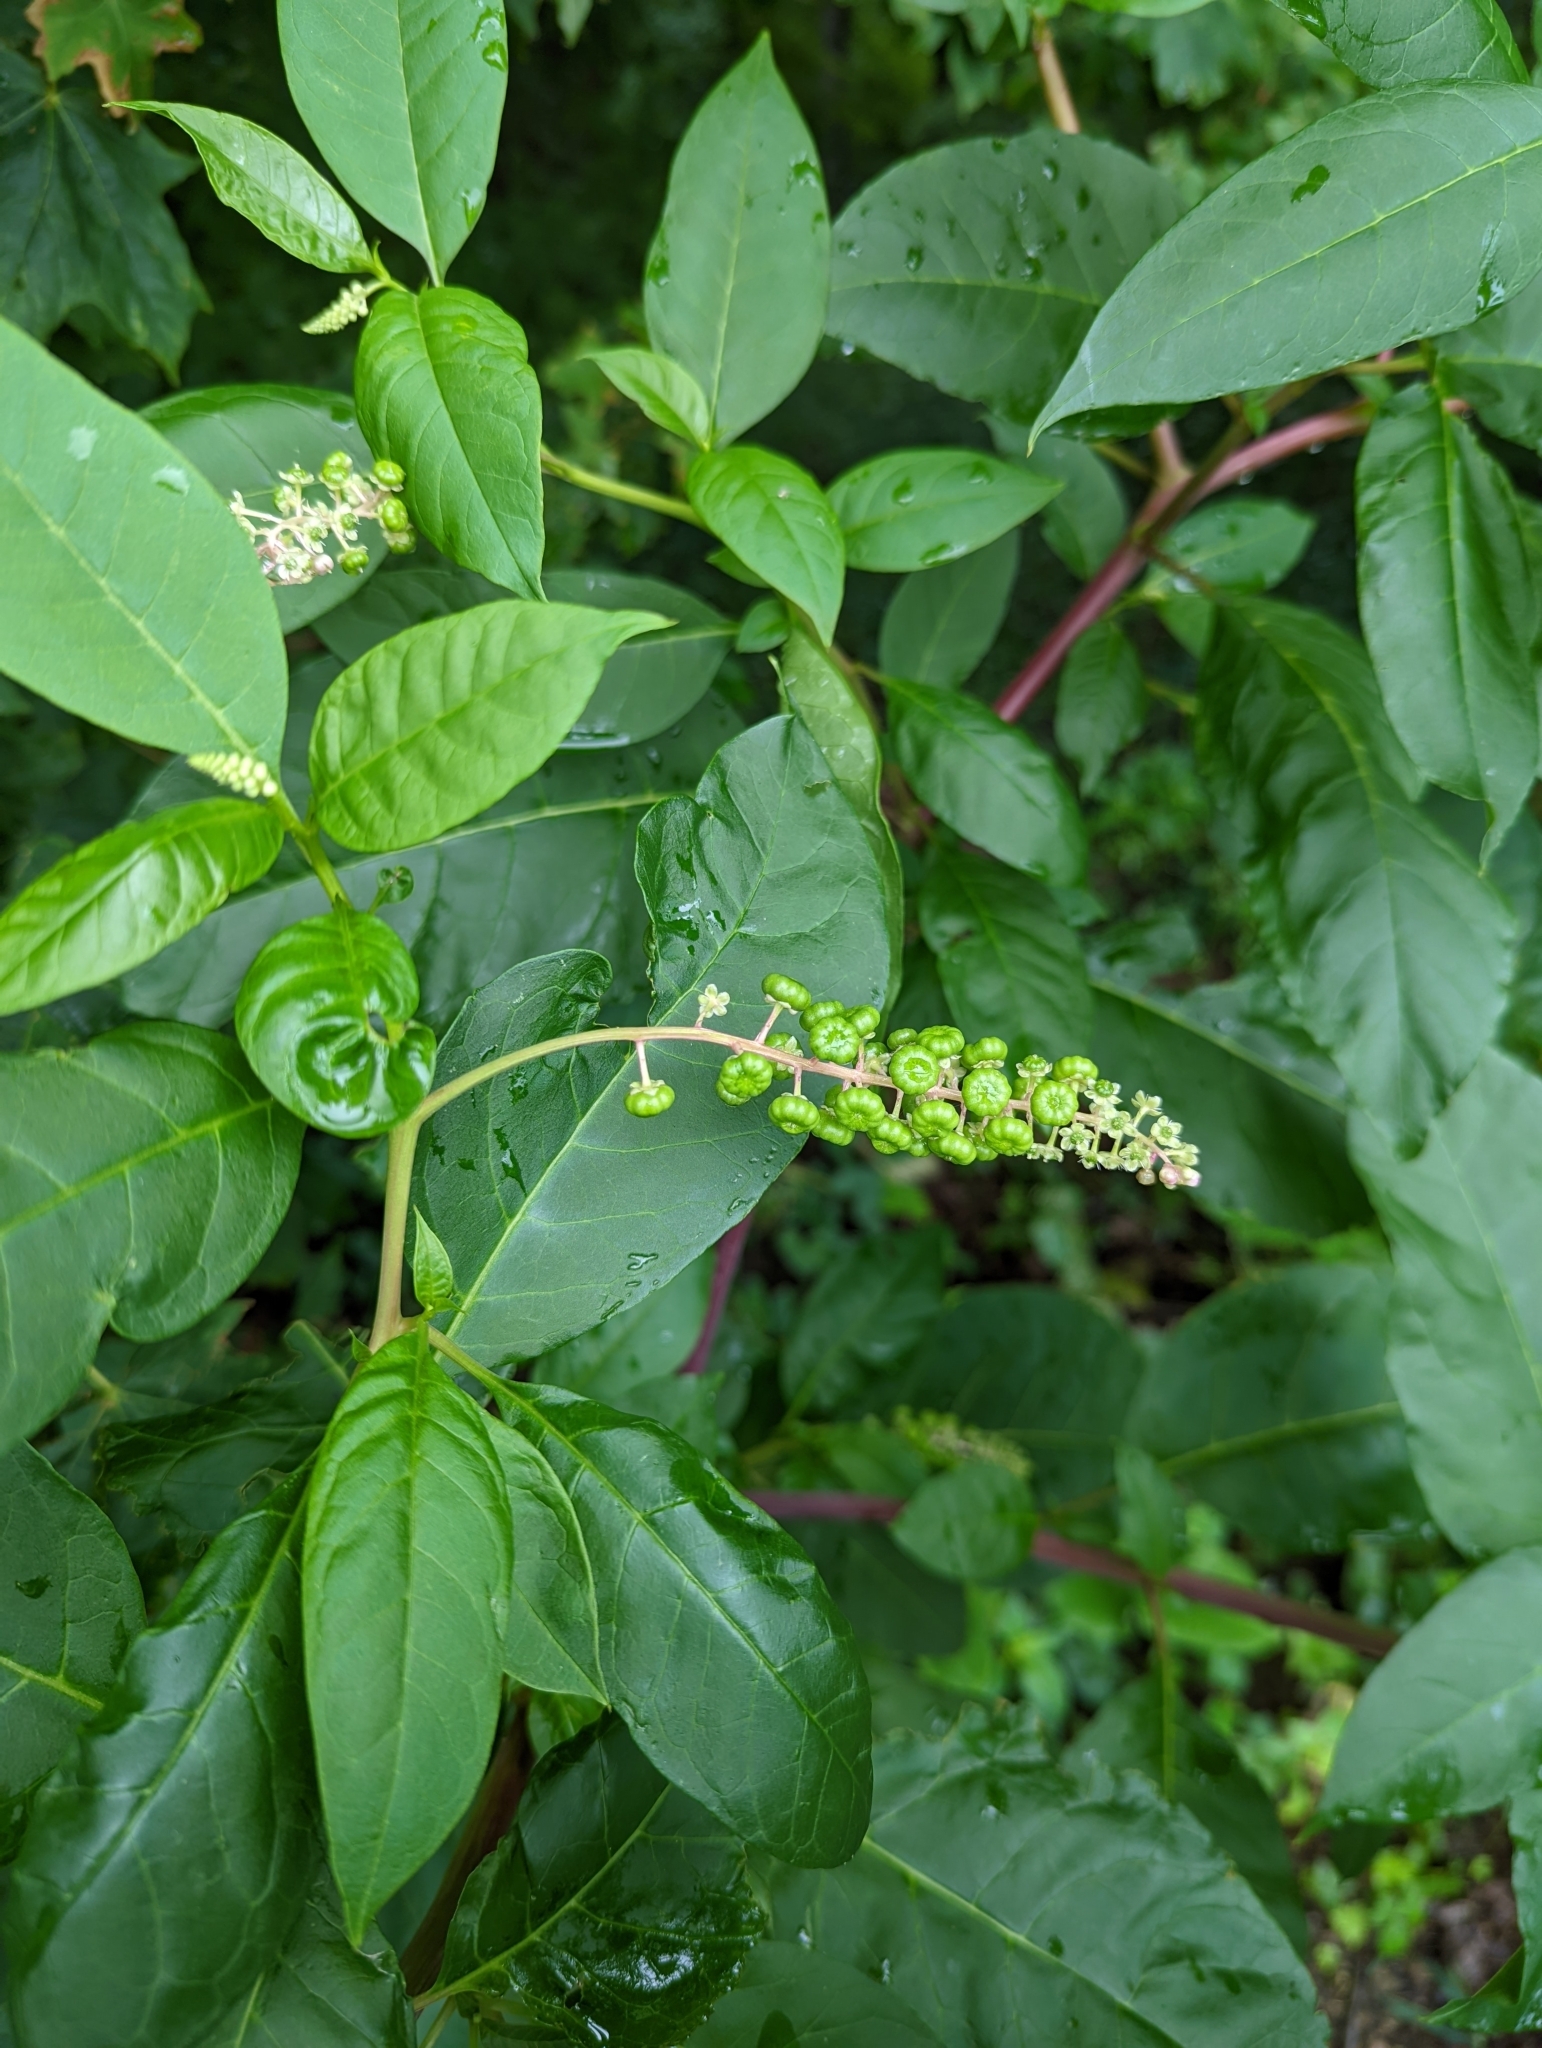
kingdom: Plantae
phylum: Tracheophyta
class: Magnoliopsida
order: Caryophyllales
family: Phytolaccaceae
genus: Phytolacca
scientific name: Phytolacca americana
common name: American pokeweed
